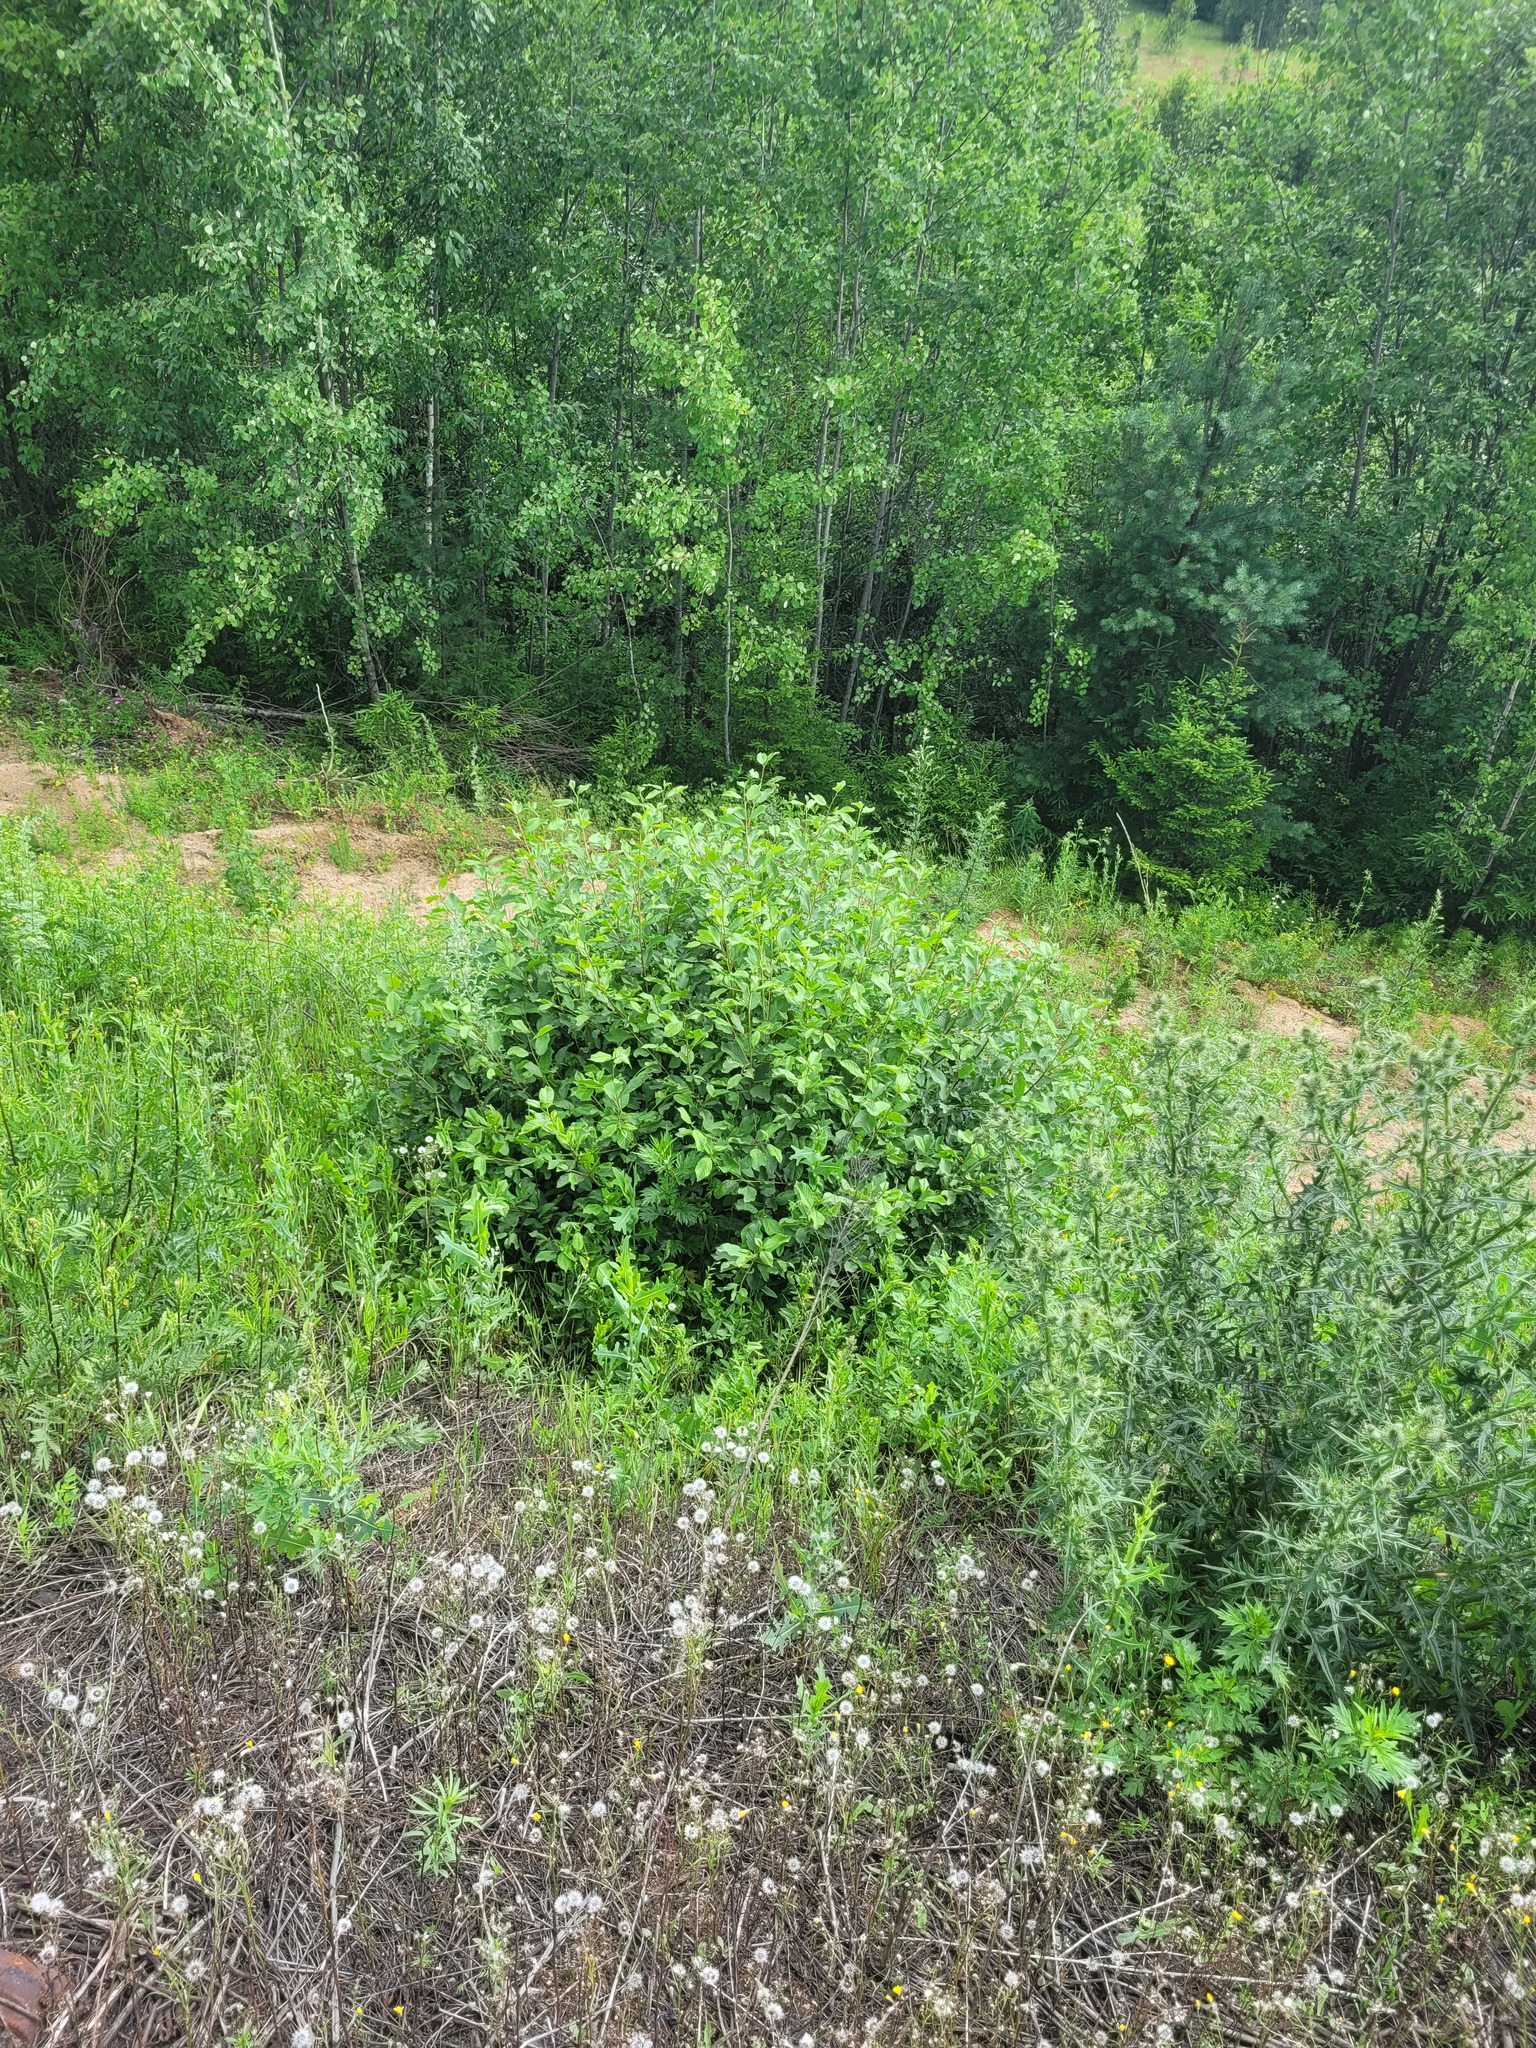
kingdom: Plantae
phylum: Tracheophyta
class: Magnoliopsida
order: Rosales
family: Rhamnaceae
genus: Frangula
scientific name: Frangula alnus
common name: Alder buckthorn
